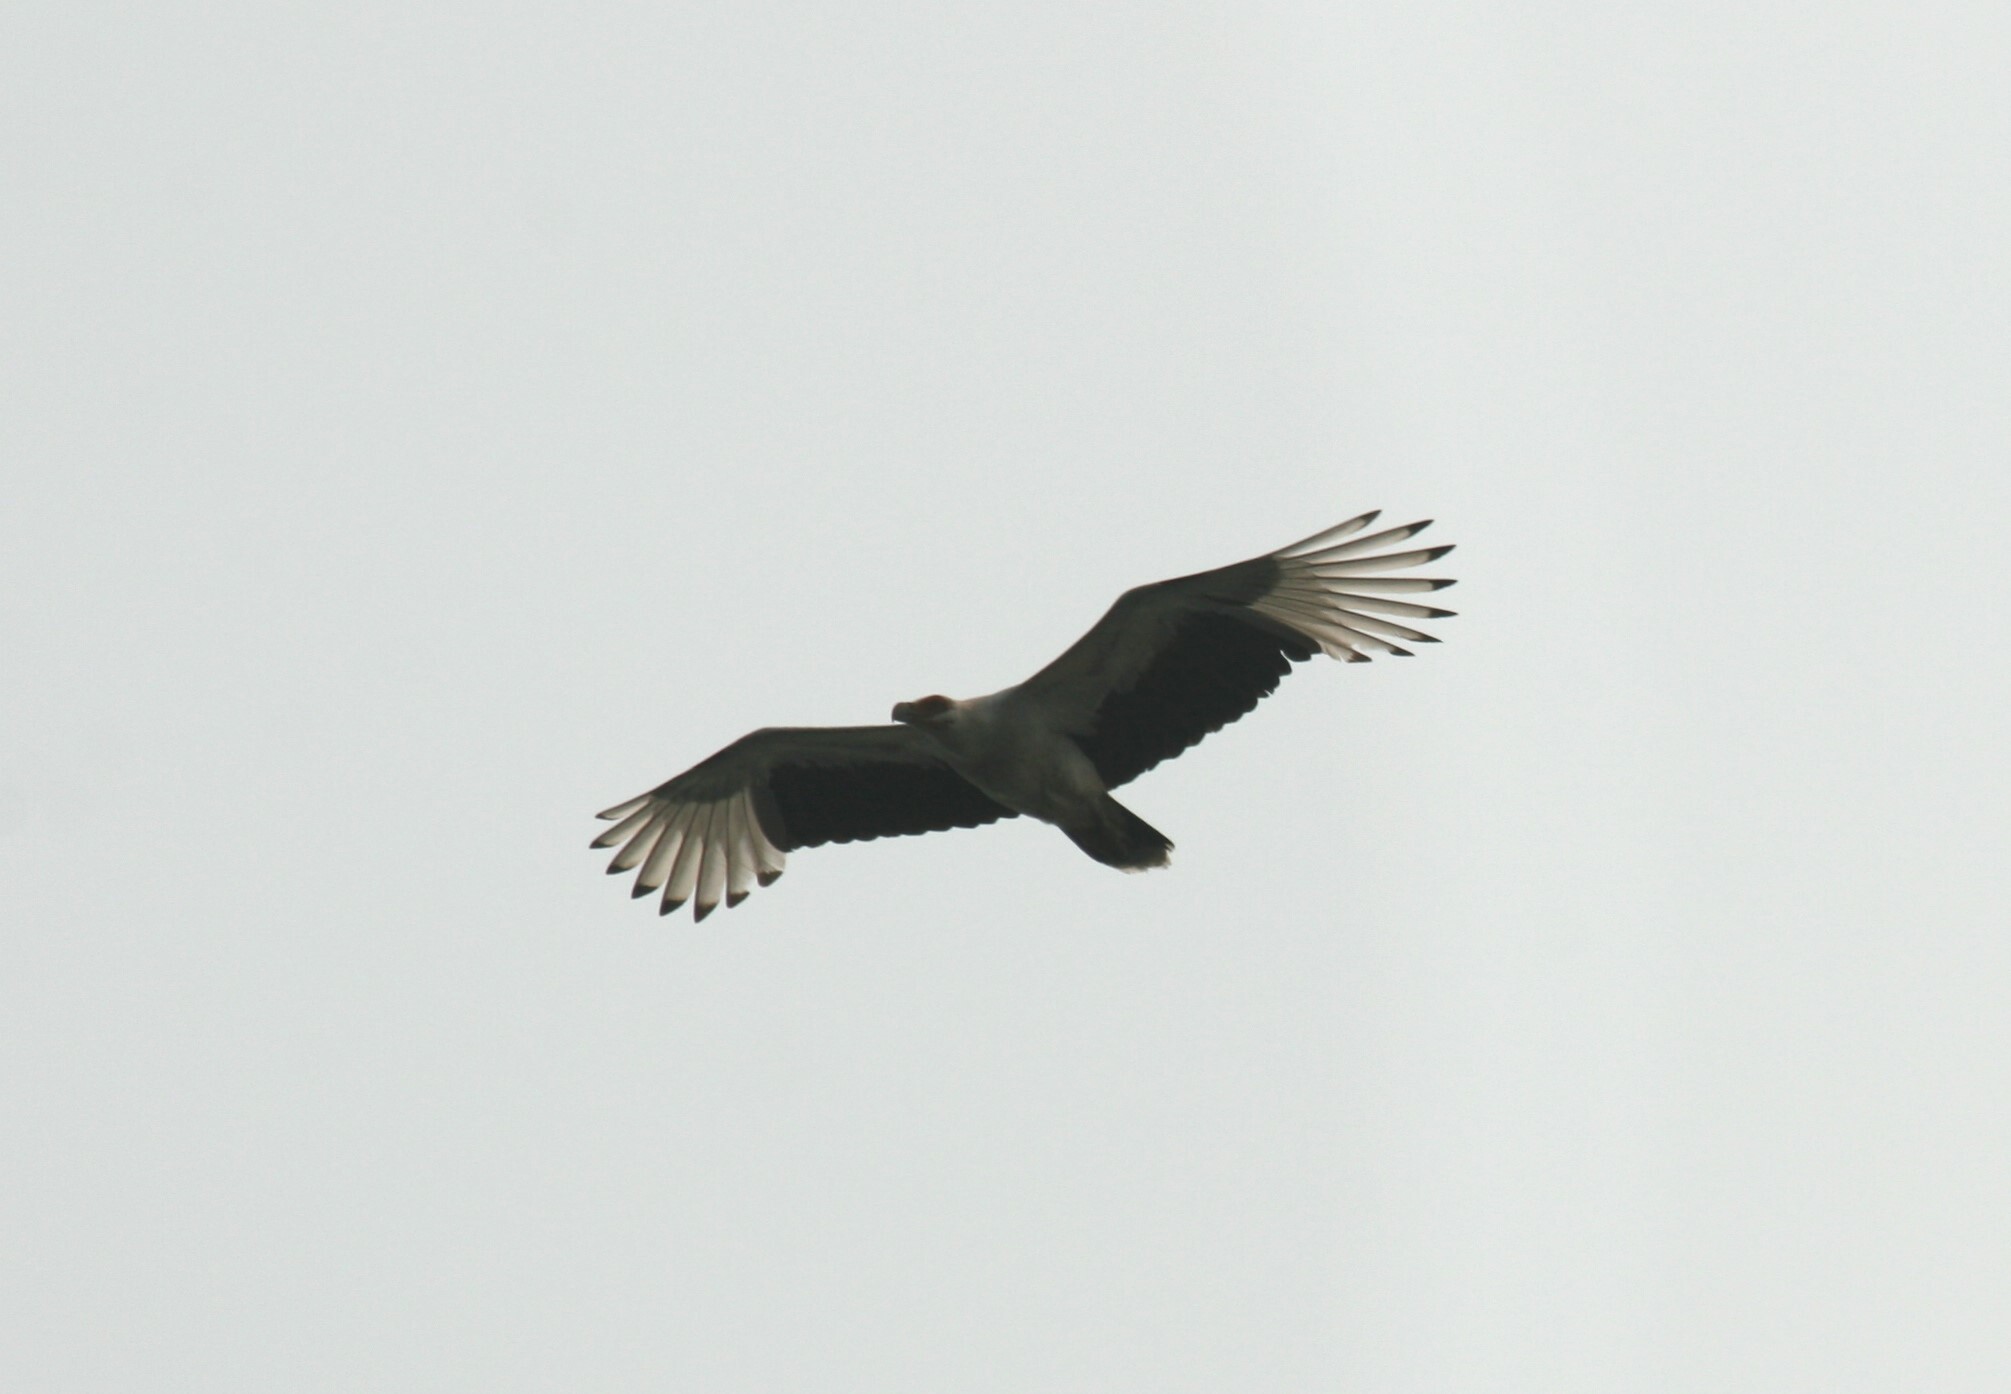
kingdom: Animalia
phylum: Chordata
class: Aves
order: Accipitriformes
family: Accipitridae
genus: Gypohierax
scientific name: Gypohierax angolensis
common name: Palm-nut vulture
